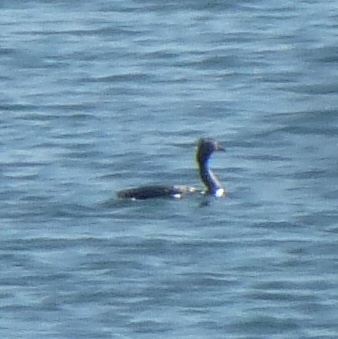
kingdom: Animalia
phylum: Chordata
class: Aves
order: Podicipediformes
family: Podicipedidae
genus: Podiceps
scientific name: Podiceps cristatus
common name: Great crested grebe
